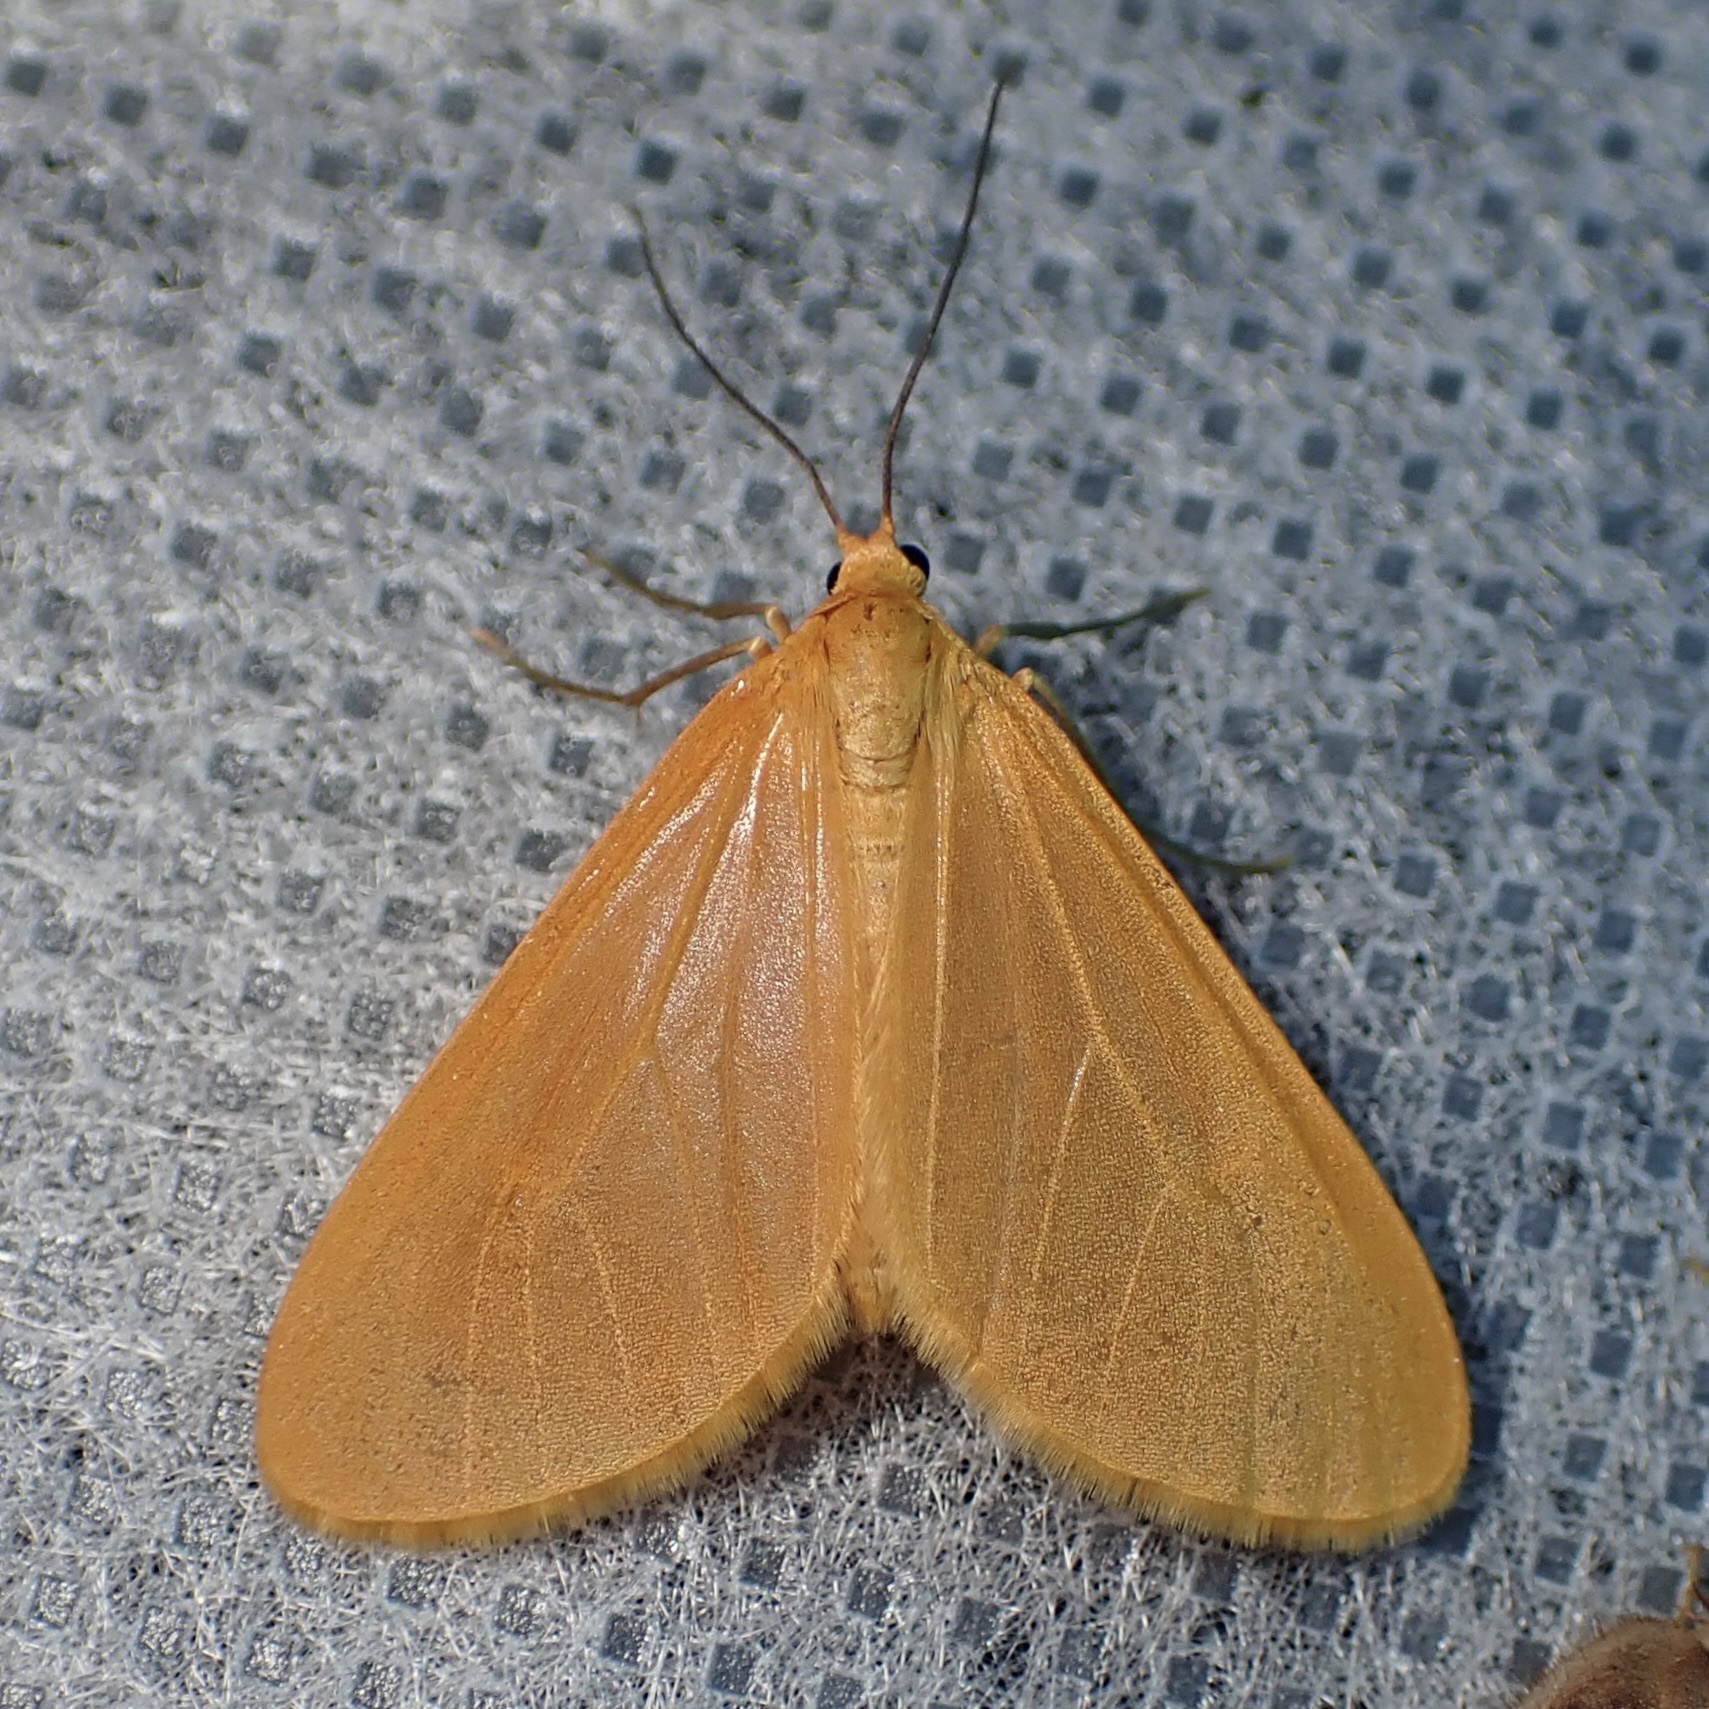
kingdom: Animalia
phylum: Arthropoda
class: Insecta
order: Lepidoptera
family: Geometridae
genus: Eubaphe
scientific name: Eubaphe unicolor
